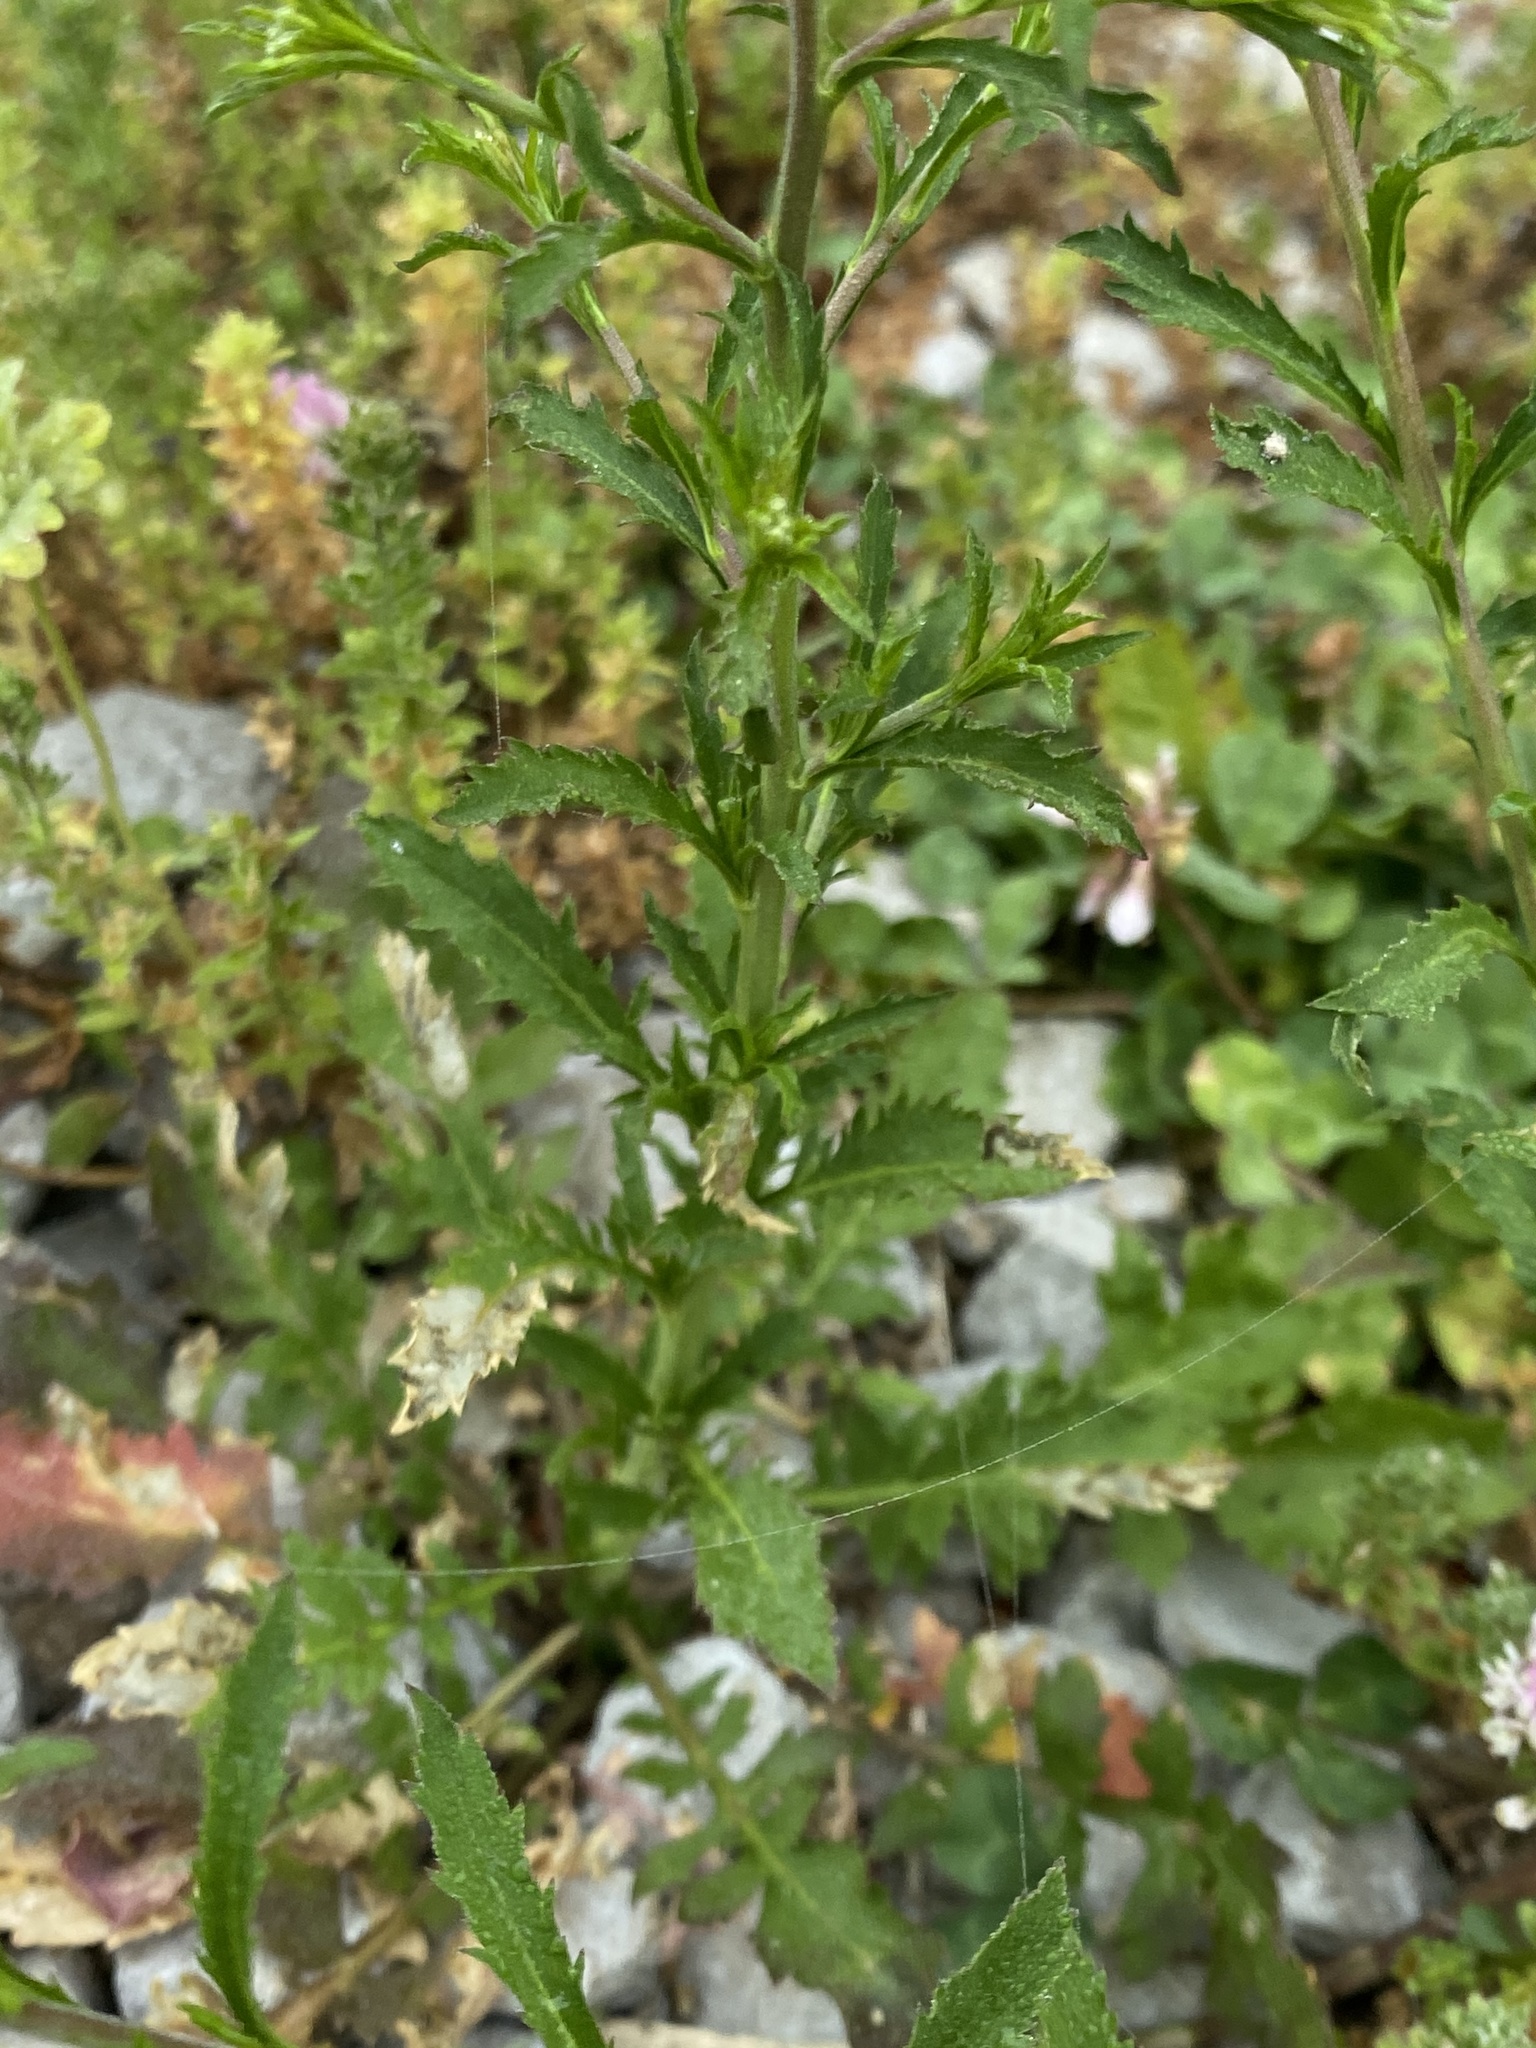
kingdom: Plantae
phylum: Tracheophyta
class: Magnoliopsida
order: Brassicales
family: Brassicaceae
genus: Lepidium
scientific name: Lepidium virginicum
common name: Least pepperwort
